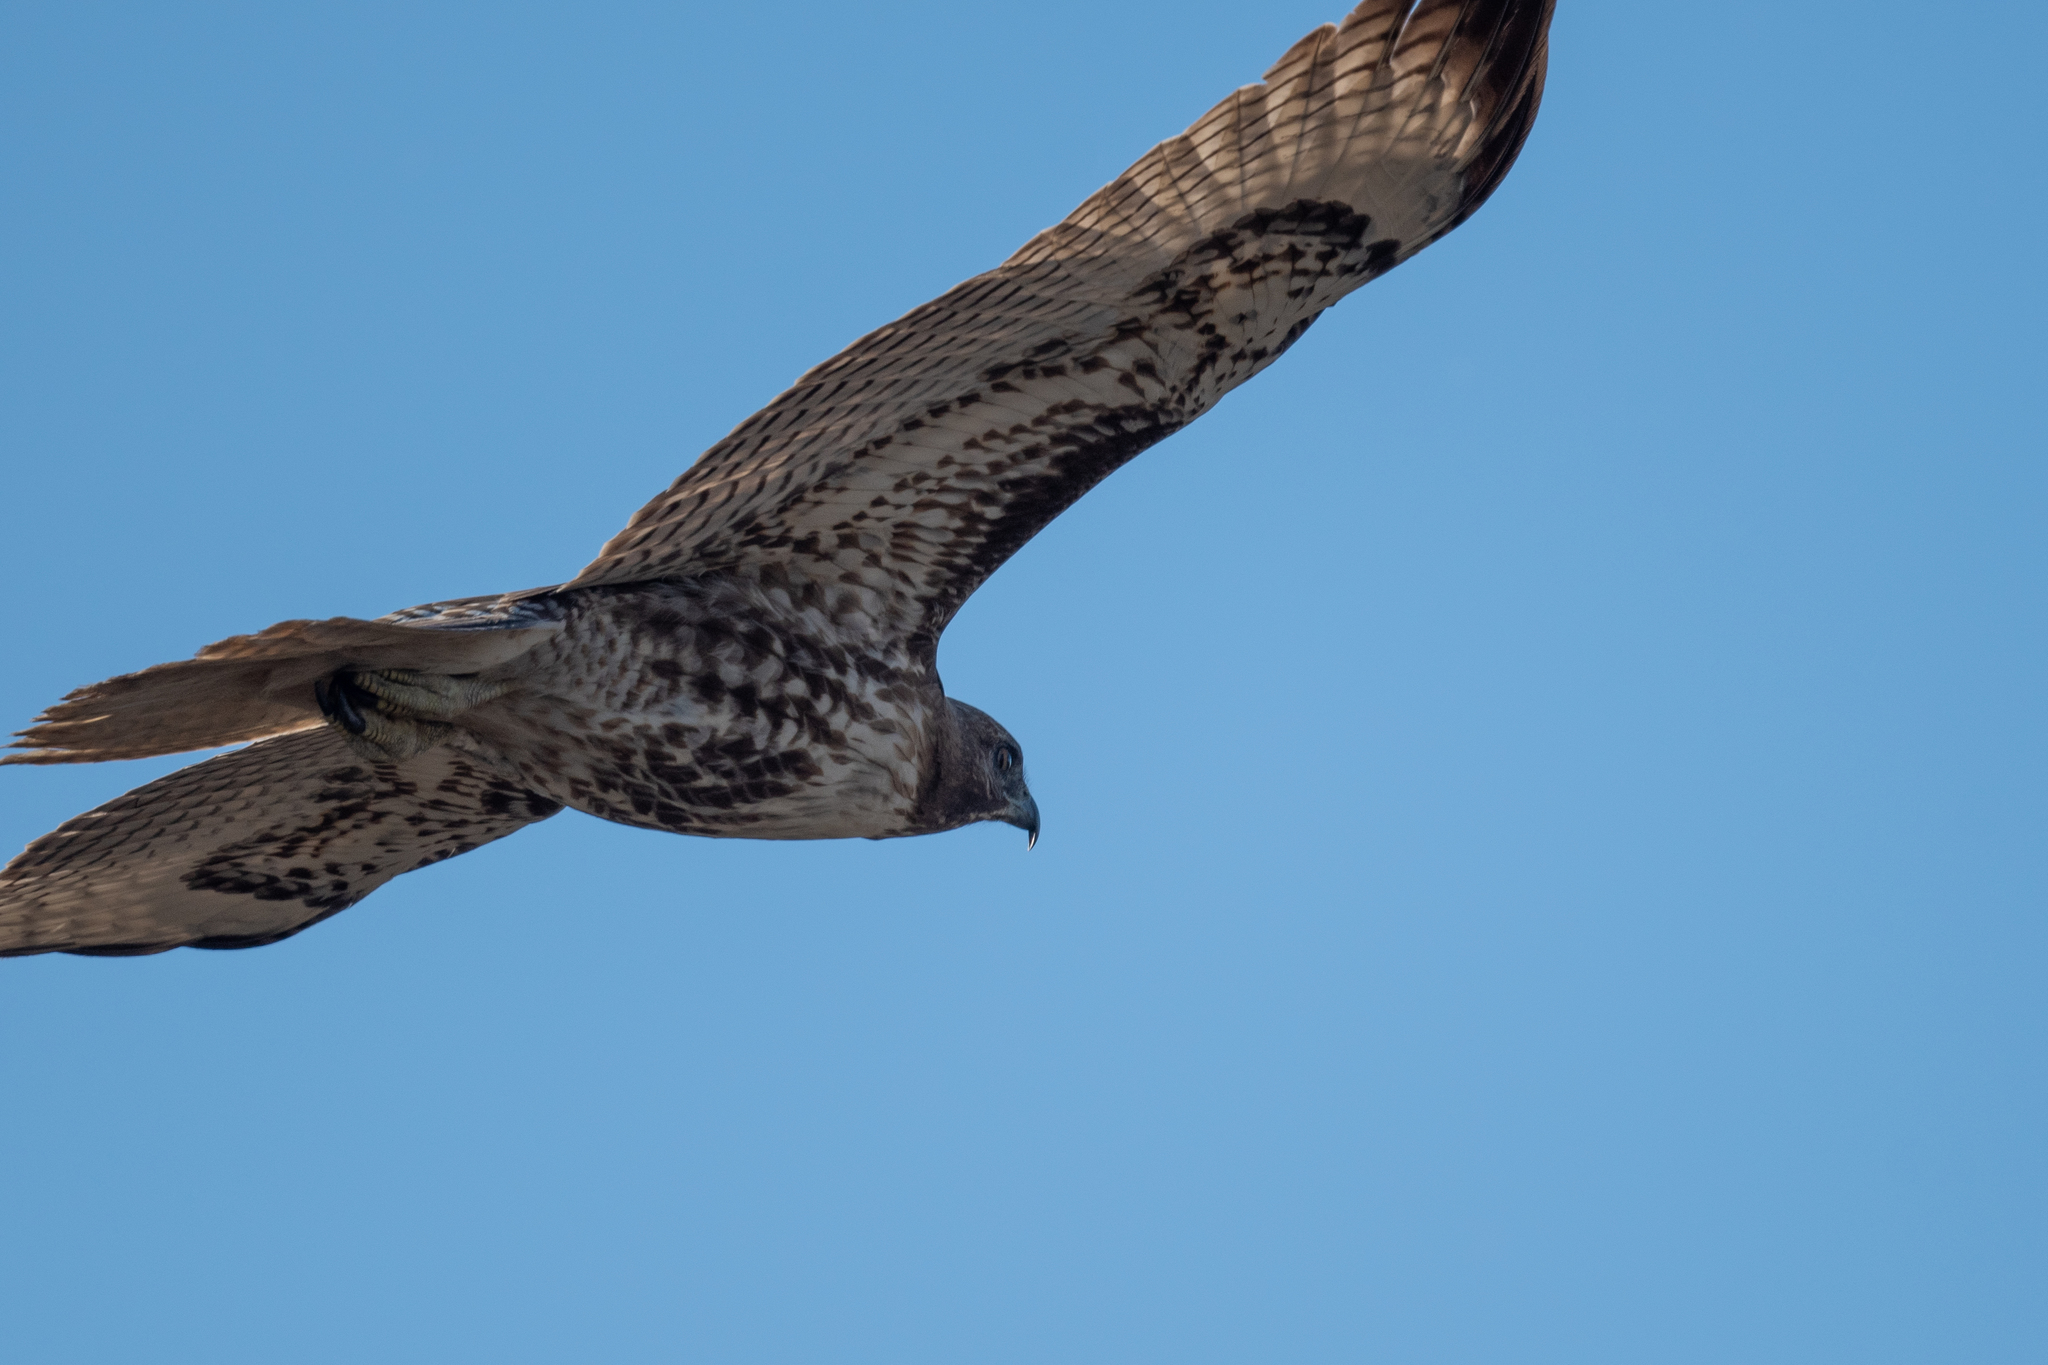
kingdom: Animalia
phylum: Chordata
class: Aves
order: Accipitriformes
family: Accipitridae
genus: Buteo
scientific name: Buteo jamaicensis
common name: Red-tailed hawk
